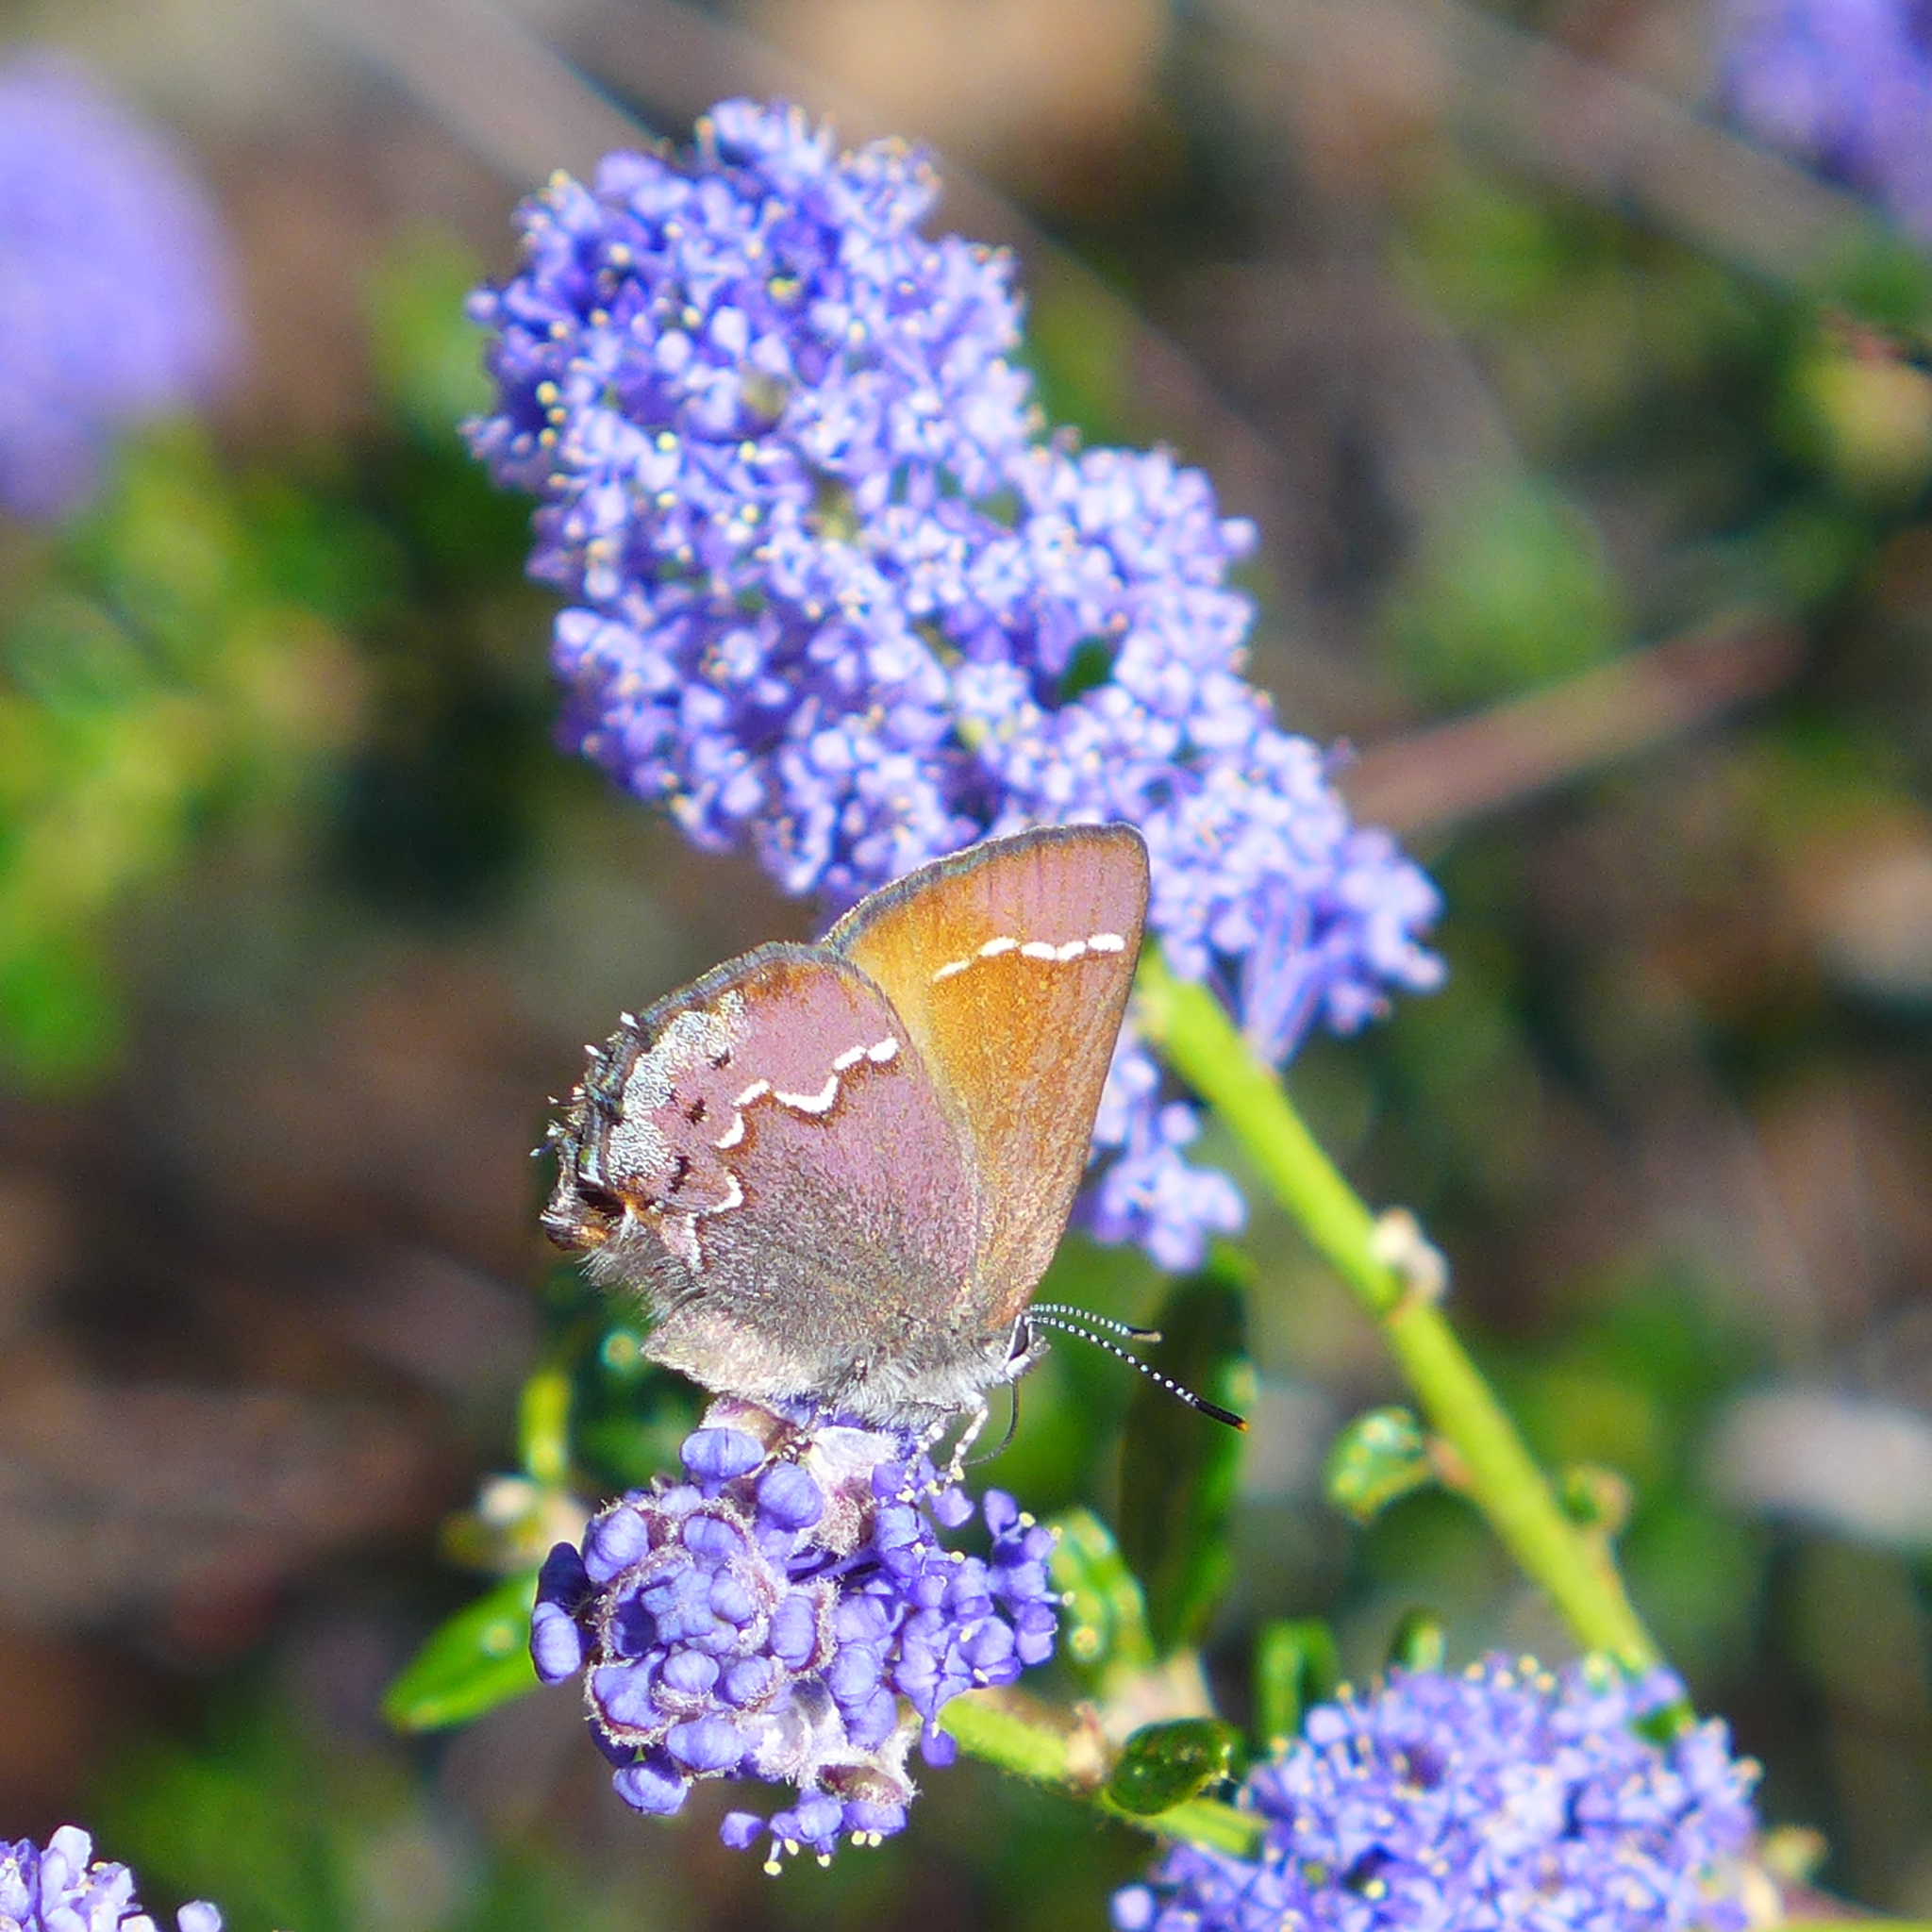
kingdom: Animalia
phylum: Arthropoda
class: Insecta
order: Lepidoptera
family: Lycaenidae
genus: Callophrys
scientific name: Callophrys muiri
